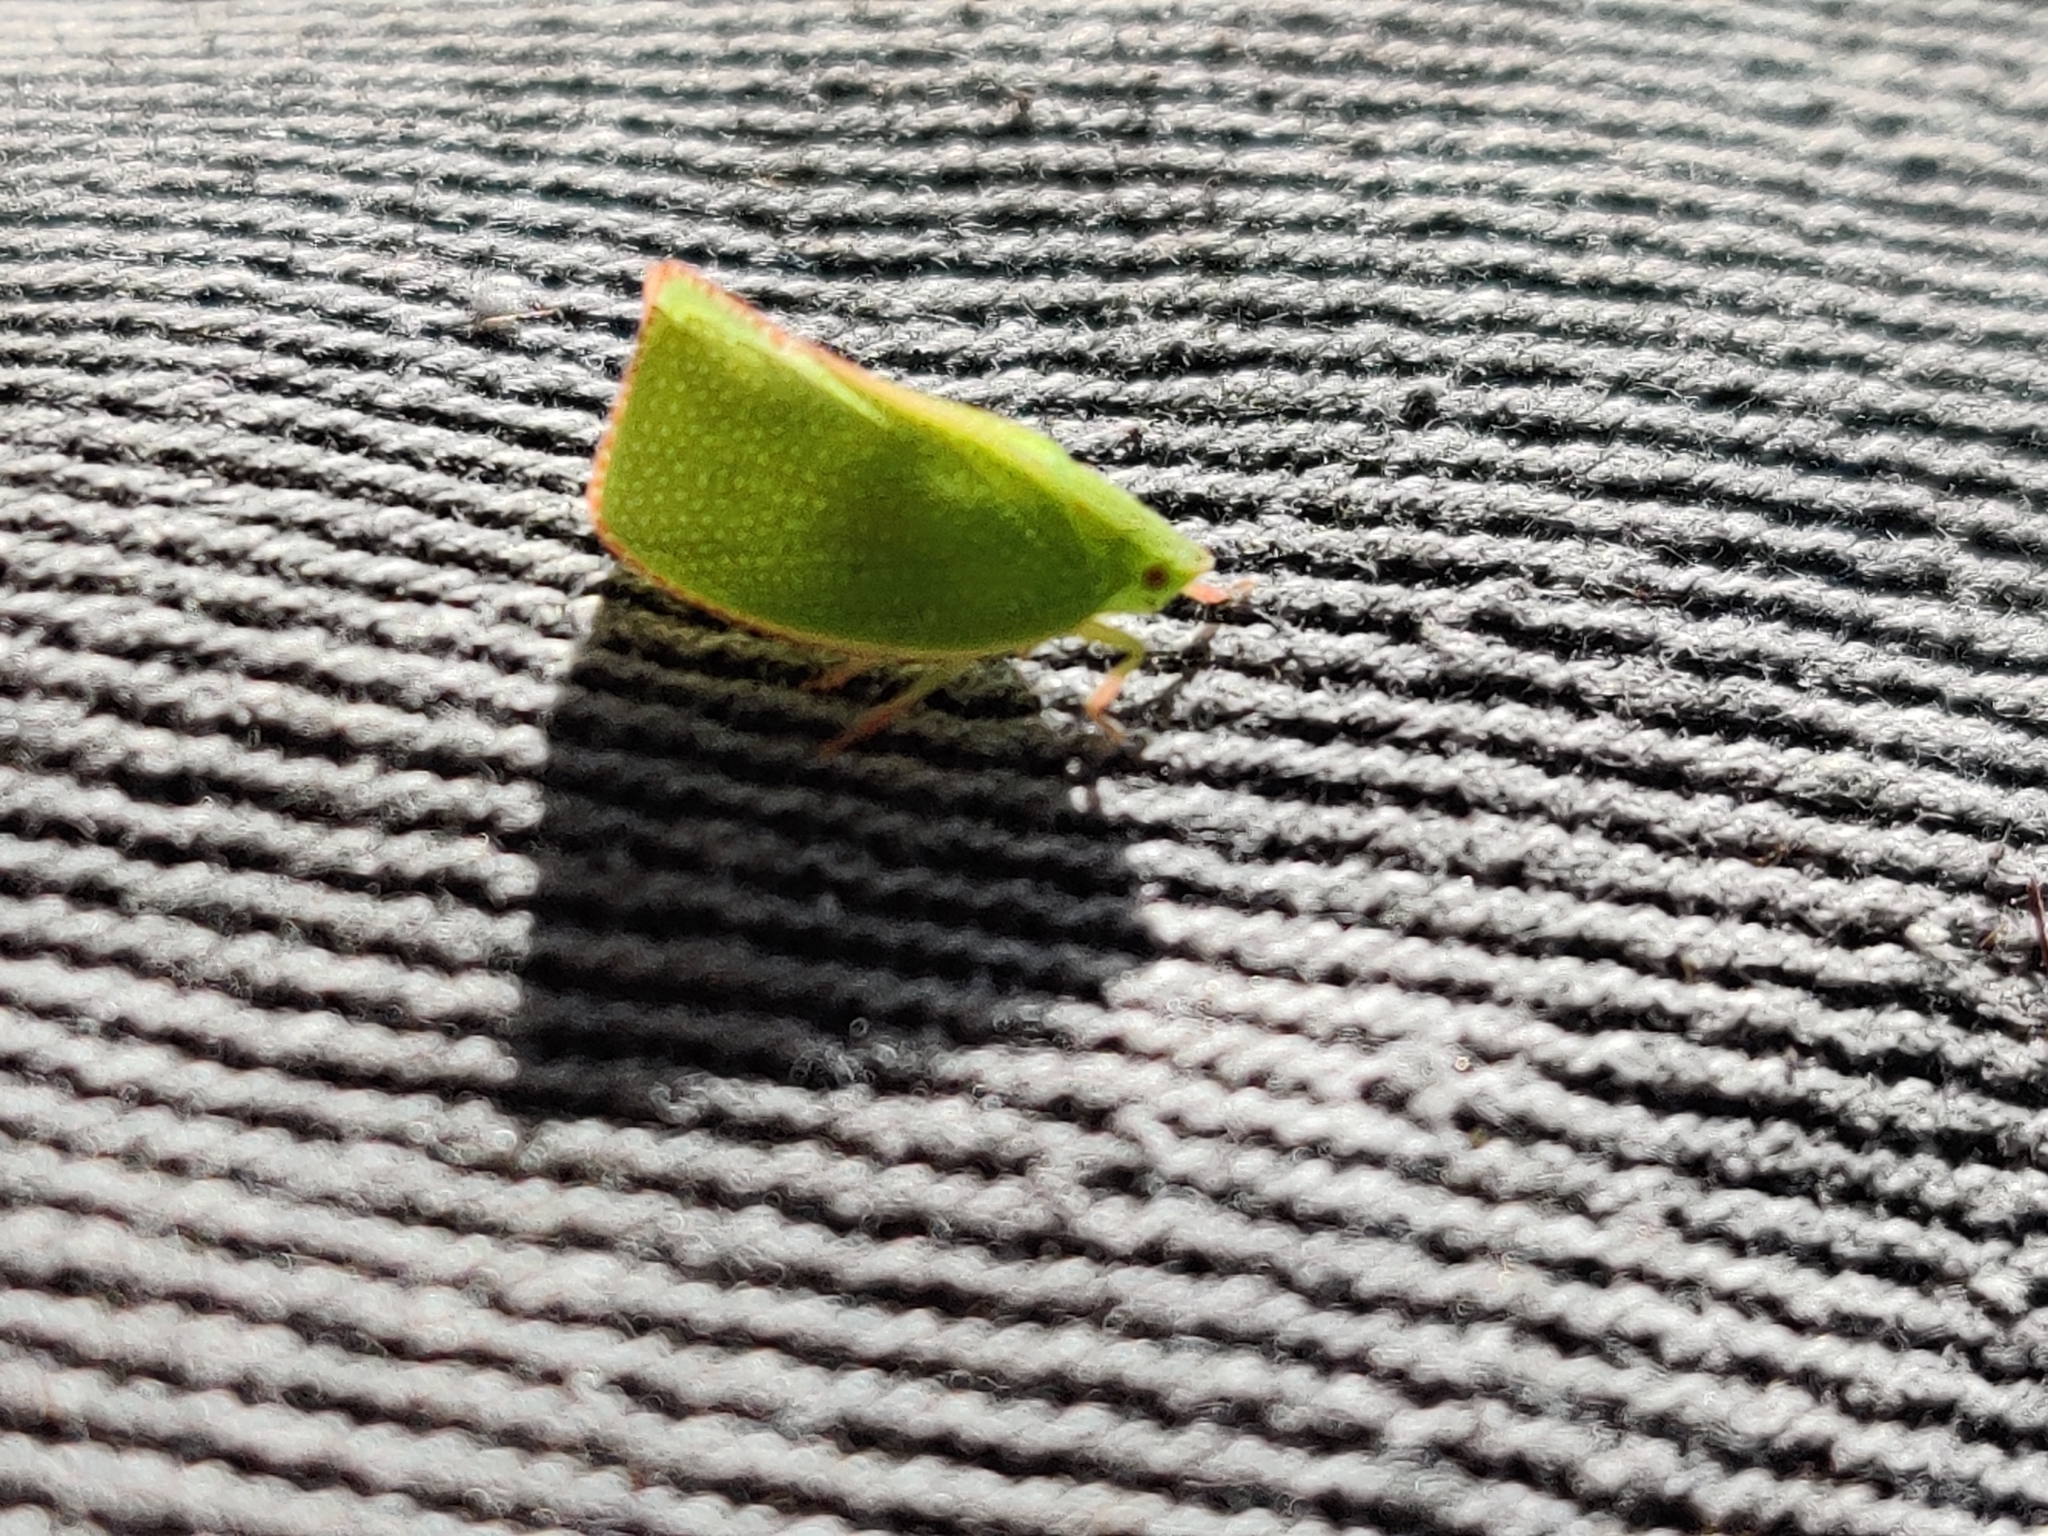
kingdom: Animalia
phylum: Arthropoda
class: Insecta
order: Hemiptera
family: Flatidae
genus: Siphanta
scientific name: Siphanta acuta
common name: Torpedo bug
